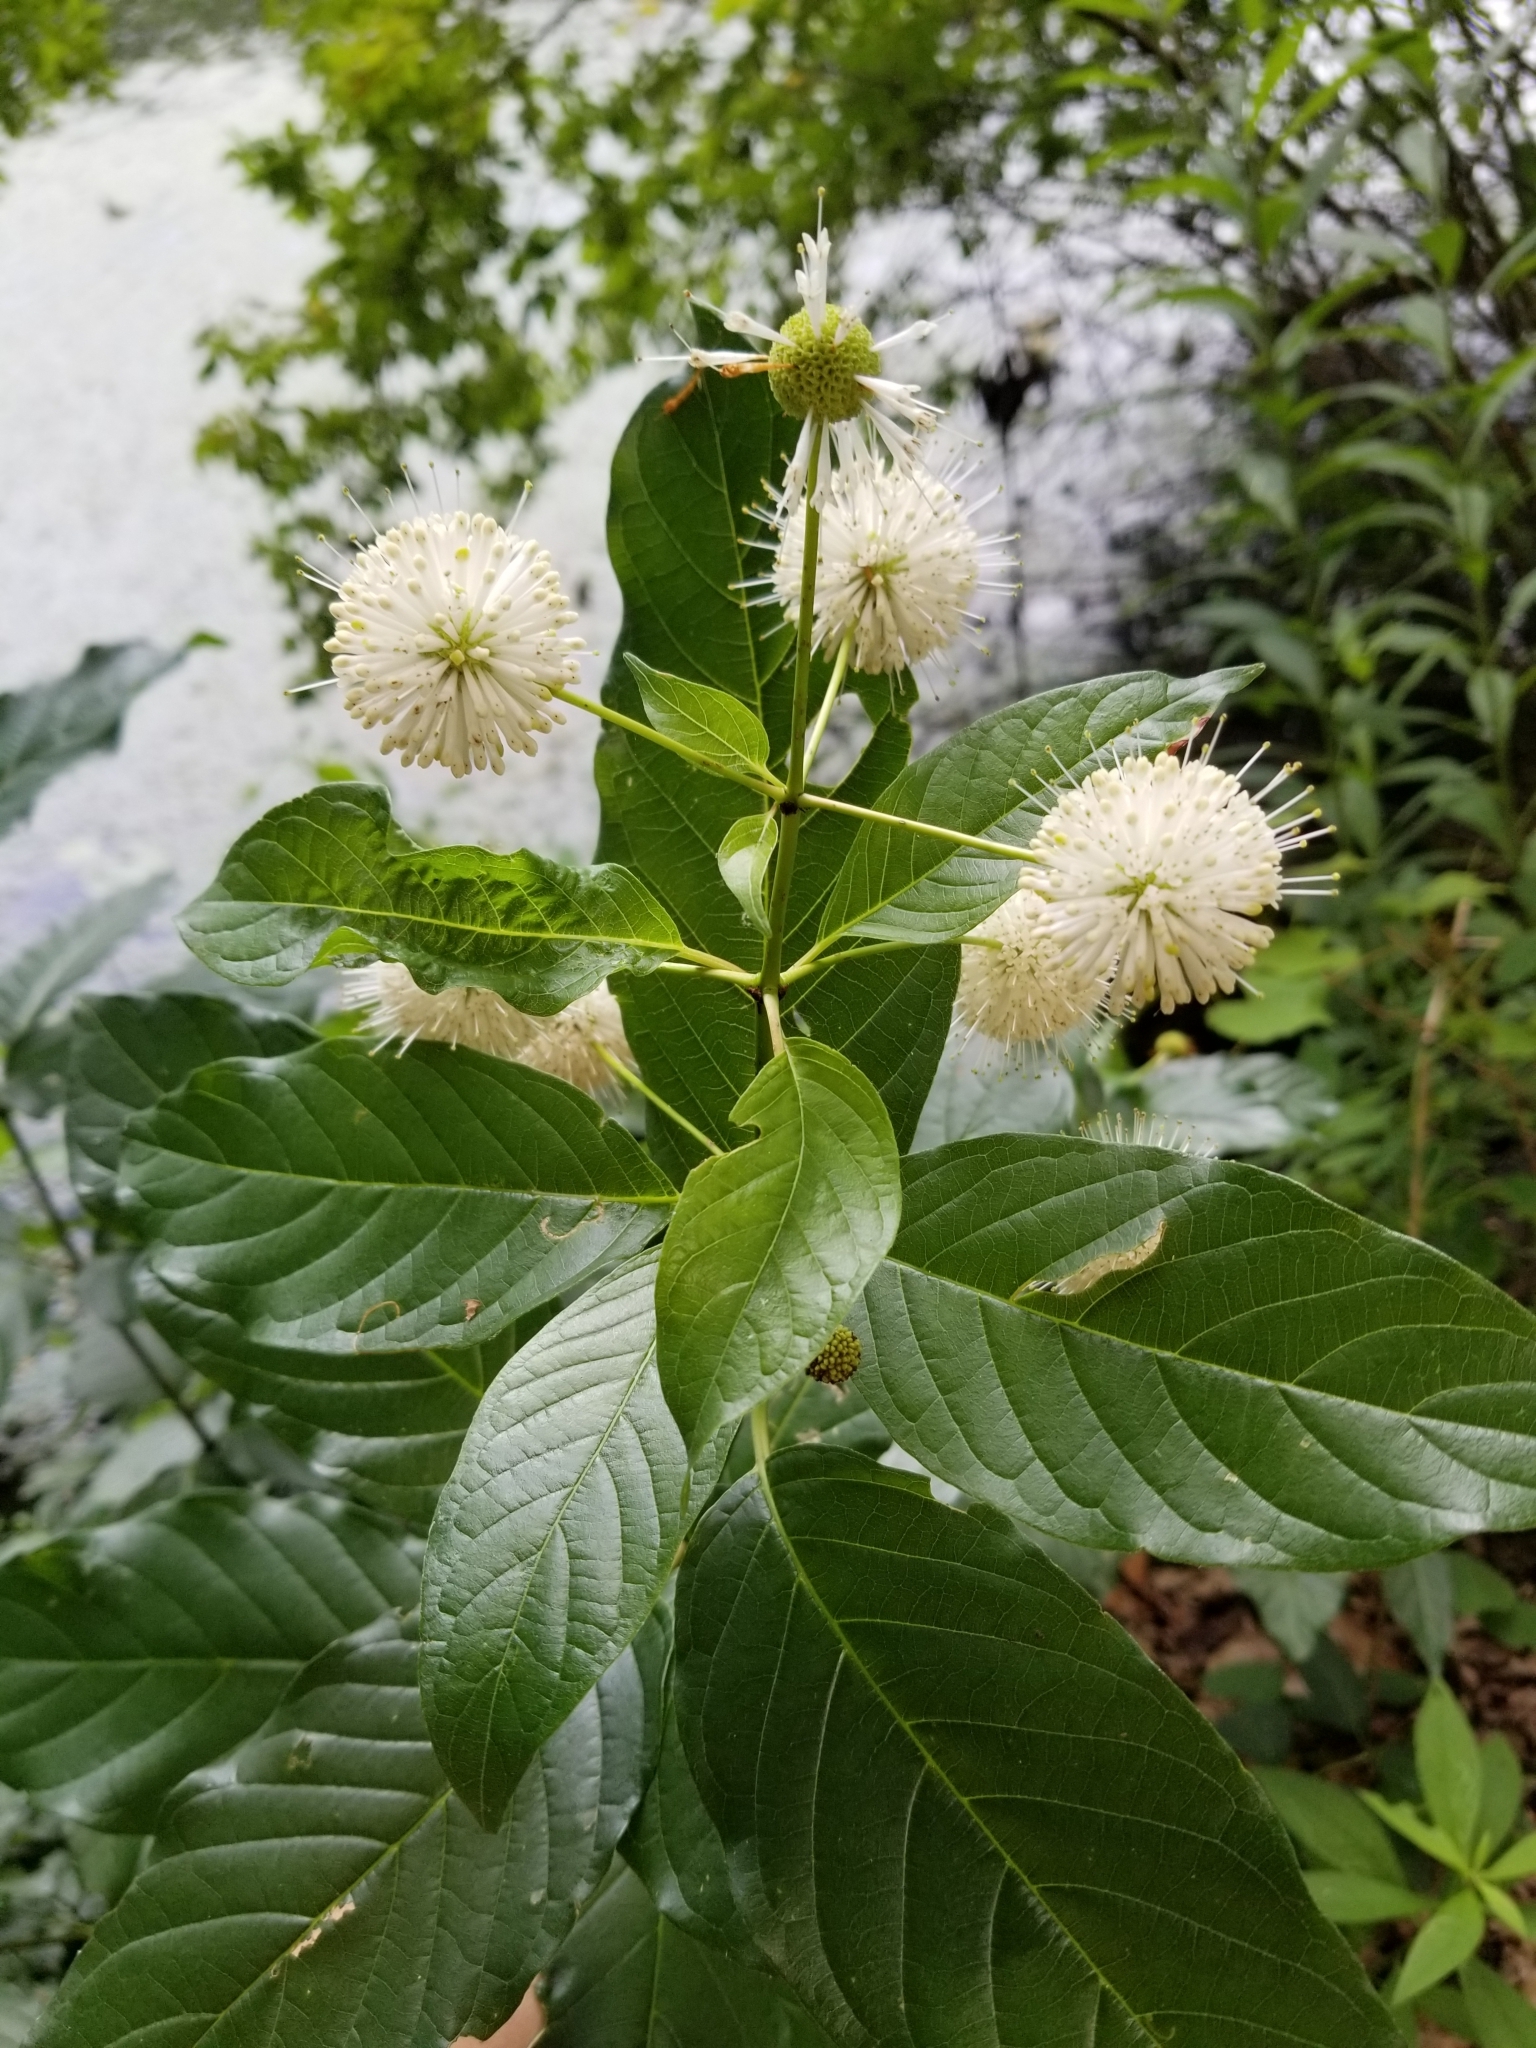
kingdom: Plantae
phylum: Tracheophyta
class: Magnoliopsida
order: Gentianales
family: Rubiaceae
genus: Cephalanthus
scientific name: Cephalanthus occidentalis
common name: Button-willow
